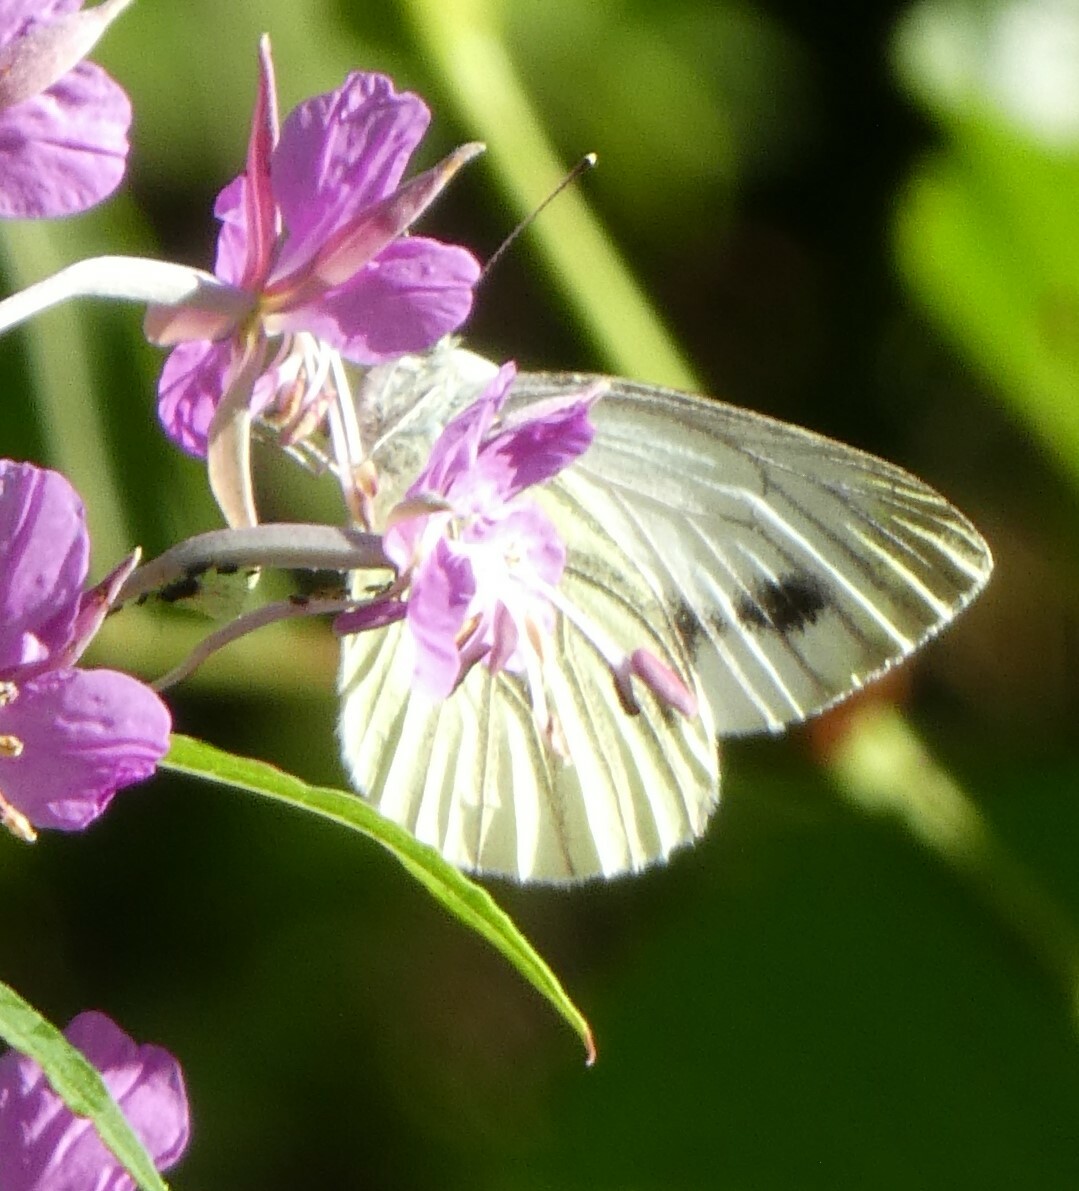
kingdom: Animalia
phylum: Arthropoda
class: Insecta
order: Lepidoptera
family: Pieridae
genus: Pieris
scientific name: Pieris napi
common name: Green-veined white
